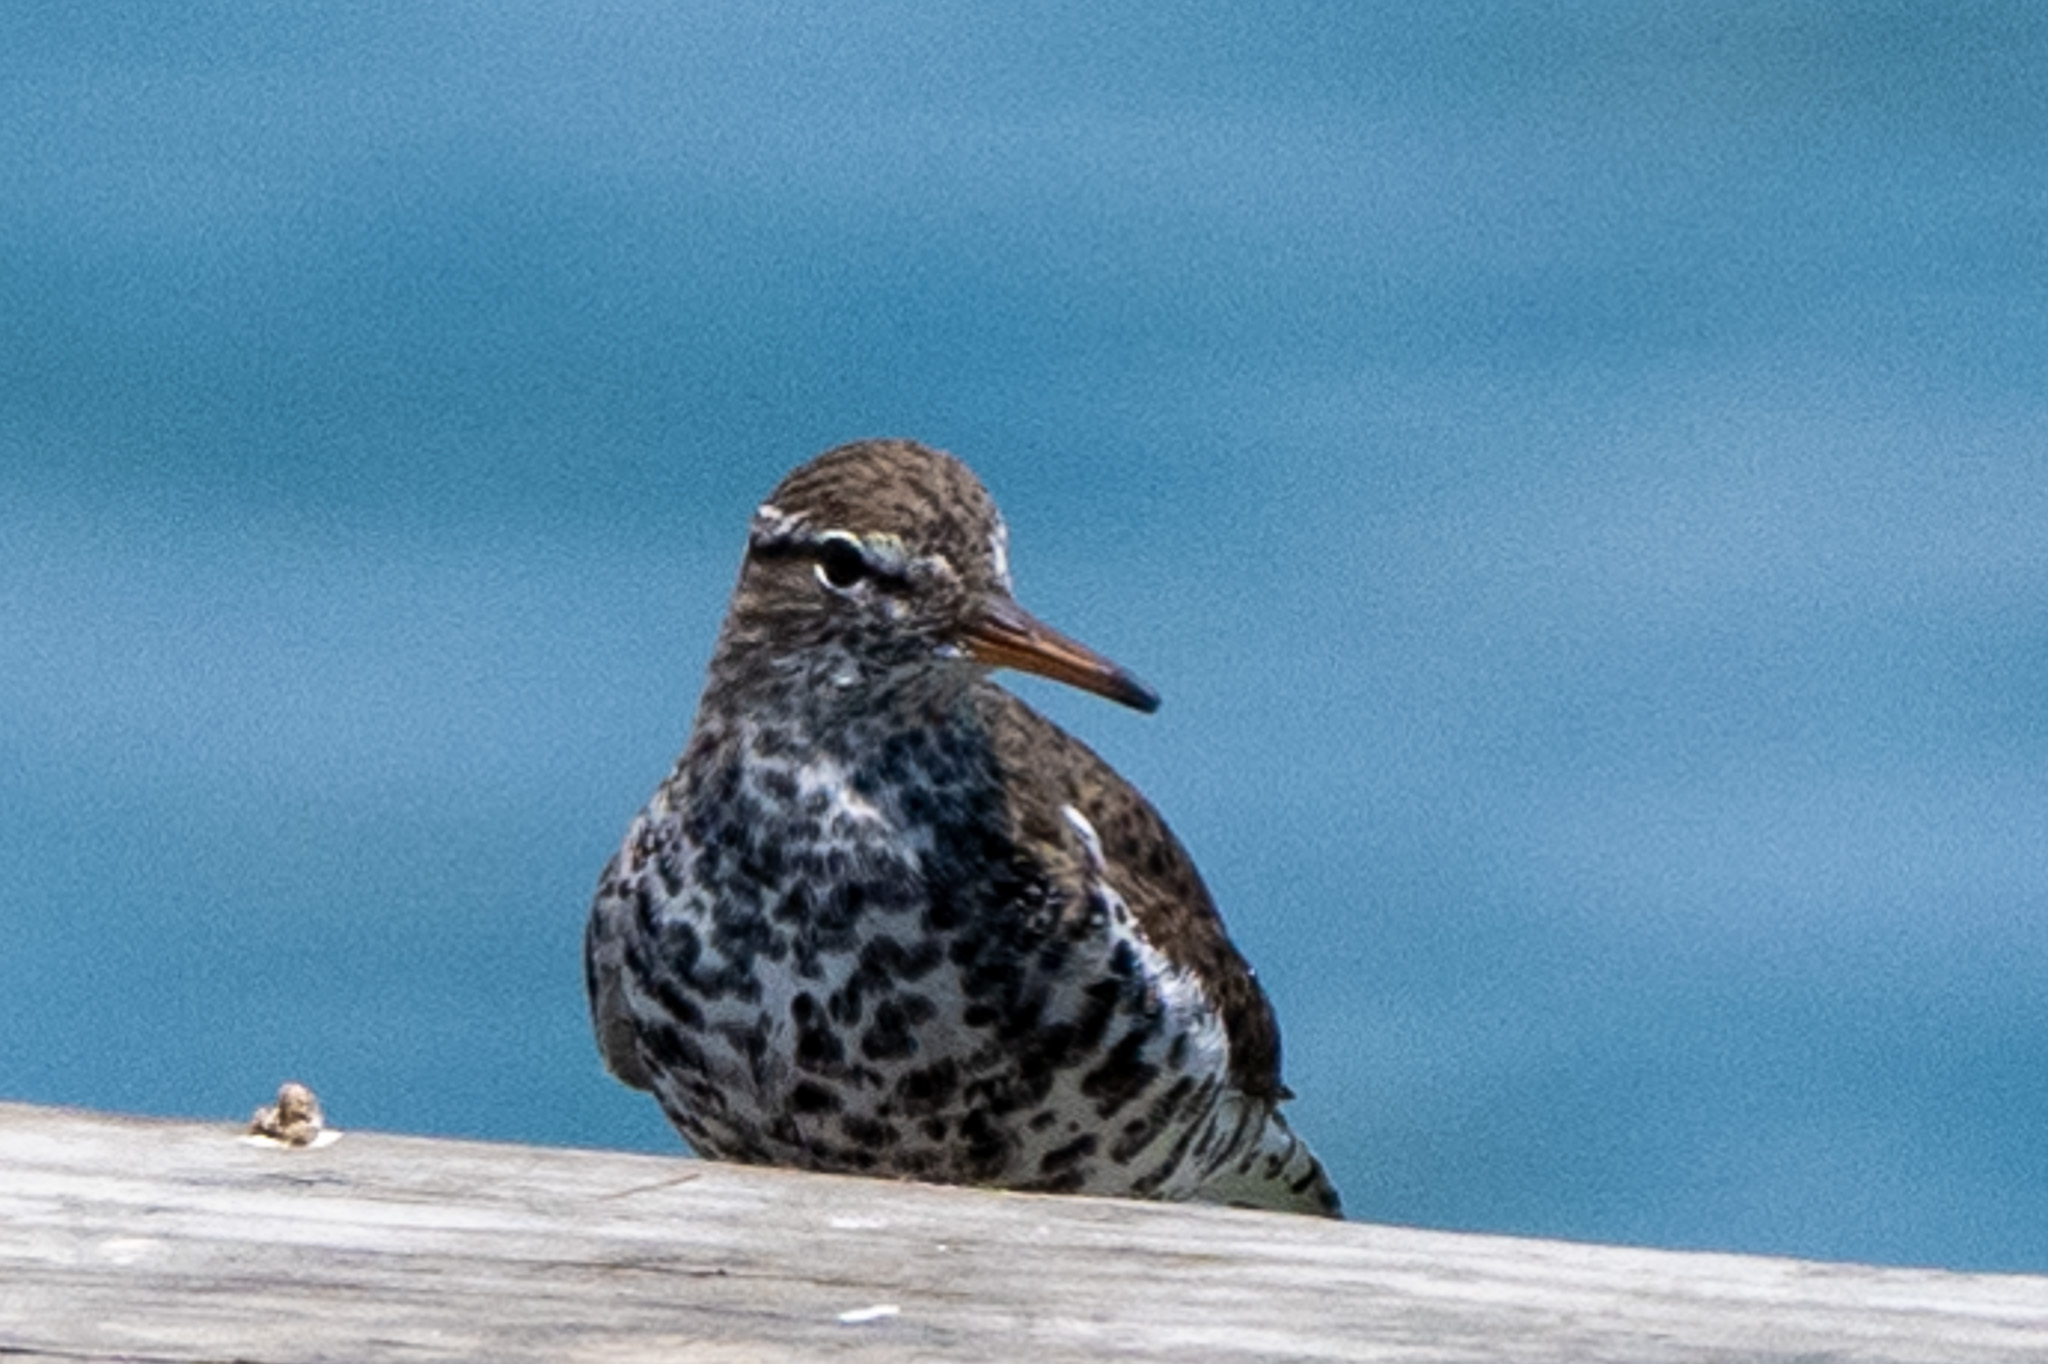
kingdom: Animalia
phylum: Chordata
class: Aves
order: Charadriiformes
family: Scolopacidae
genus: Actitis
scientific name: Actitis macularius
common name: Spotted sandpiper
